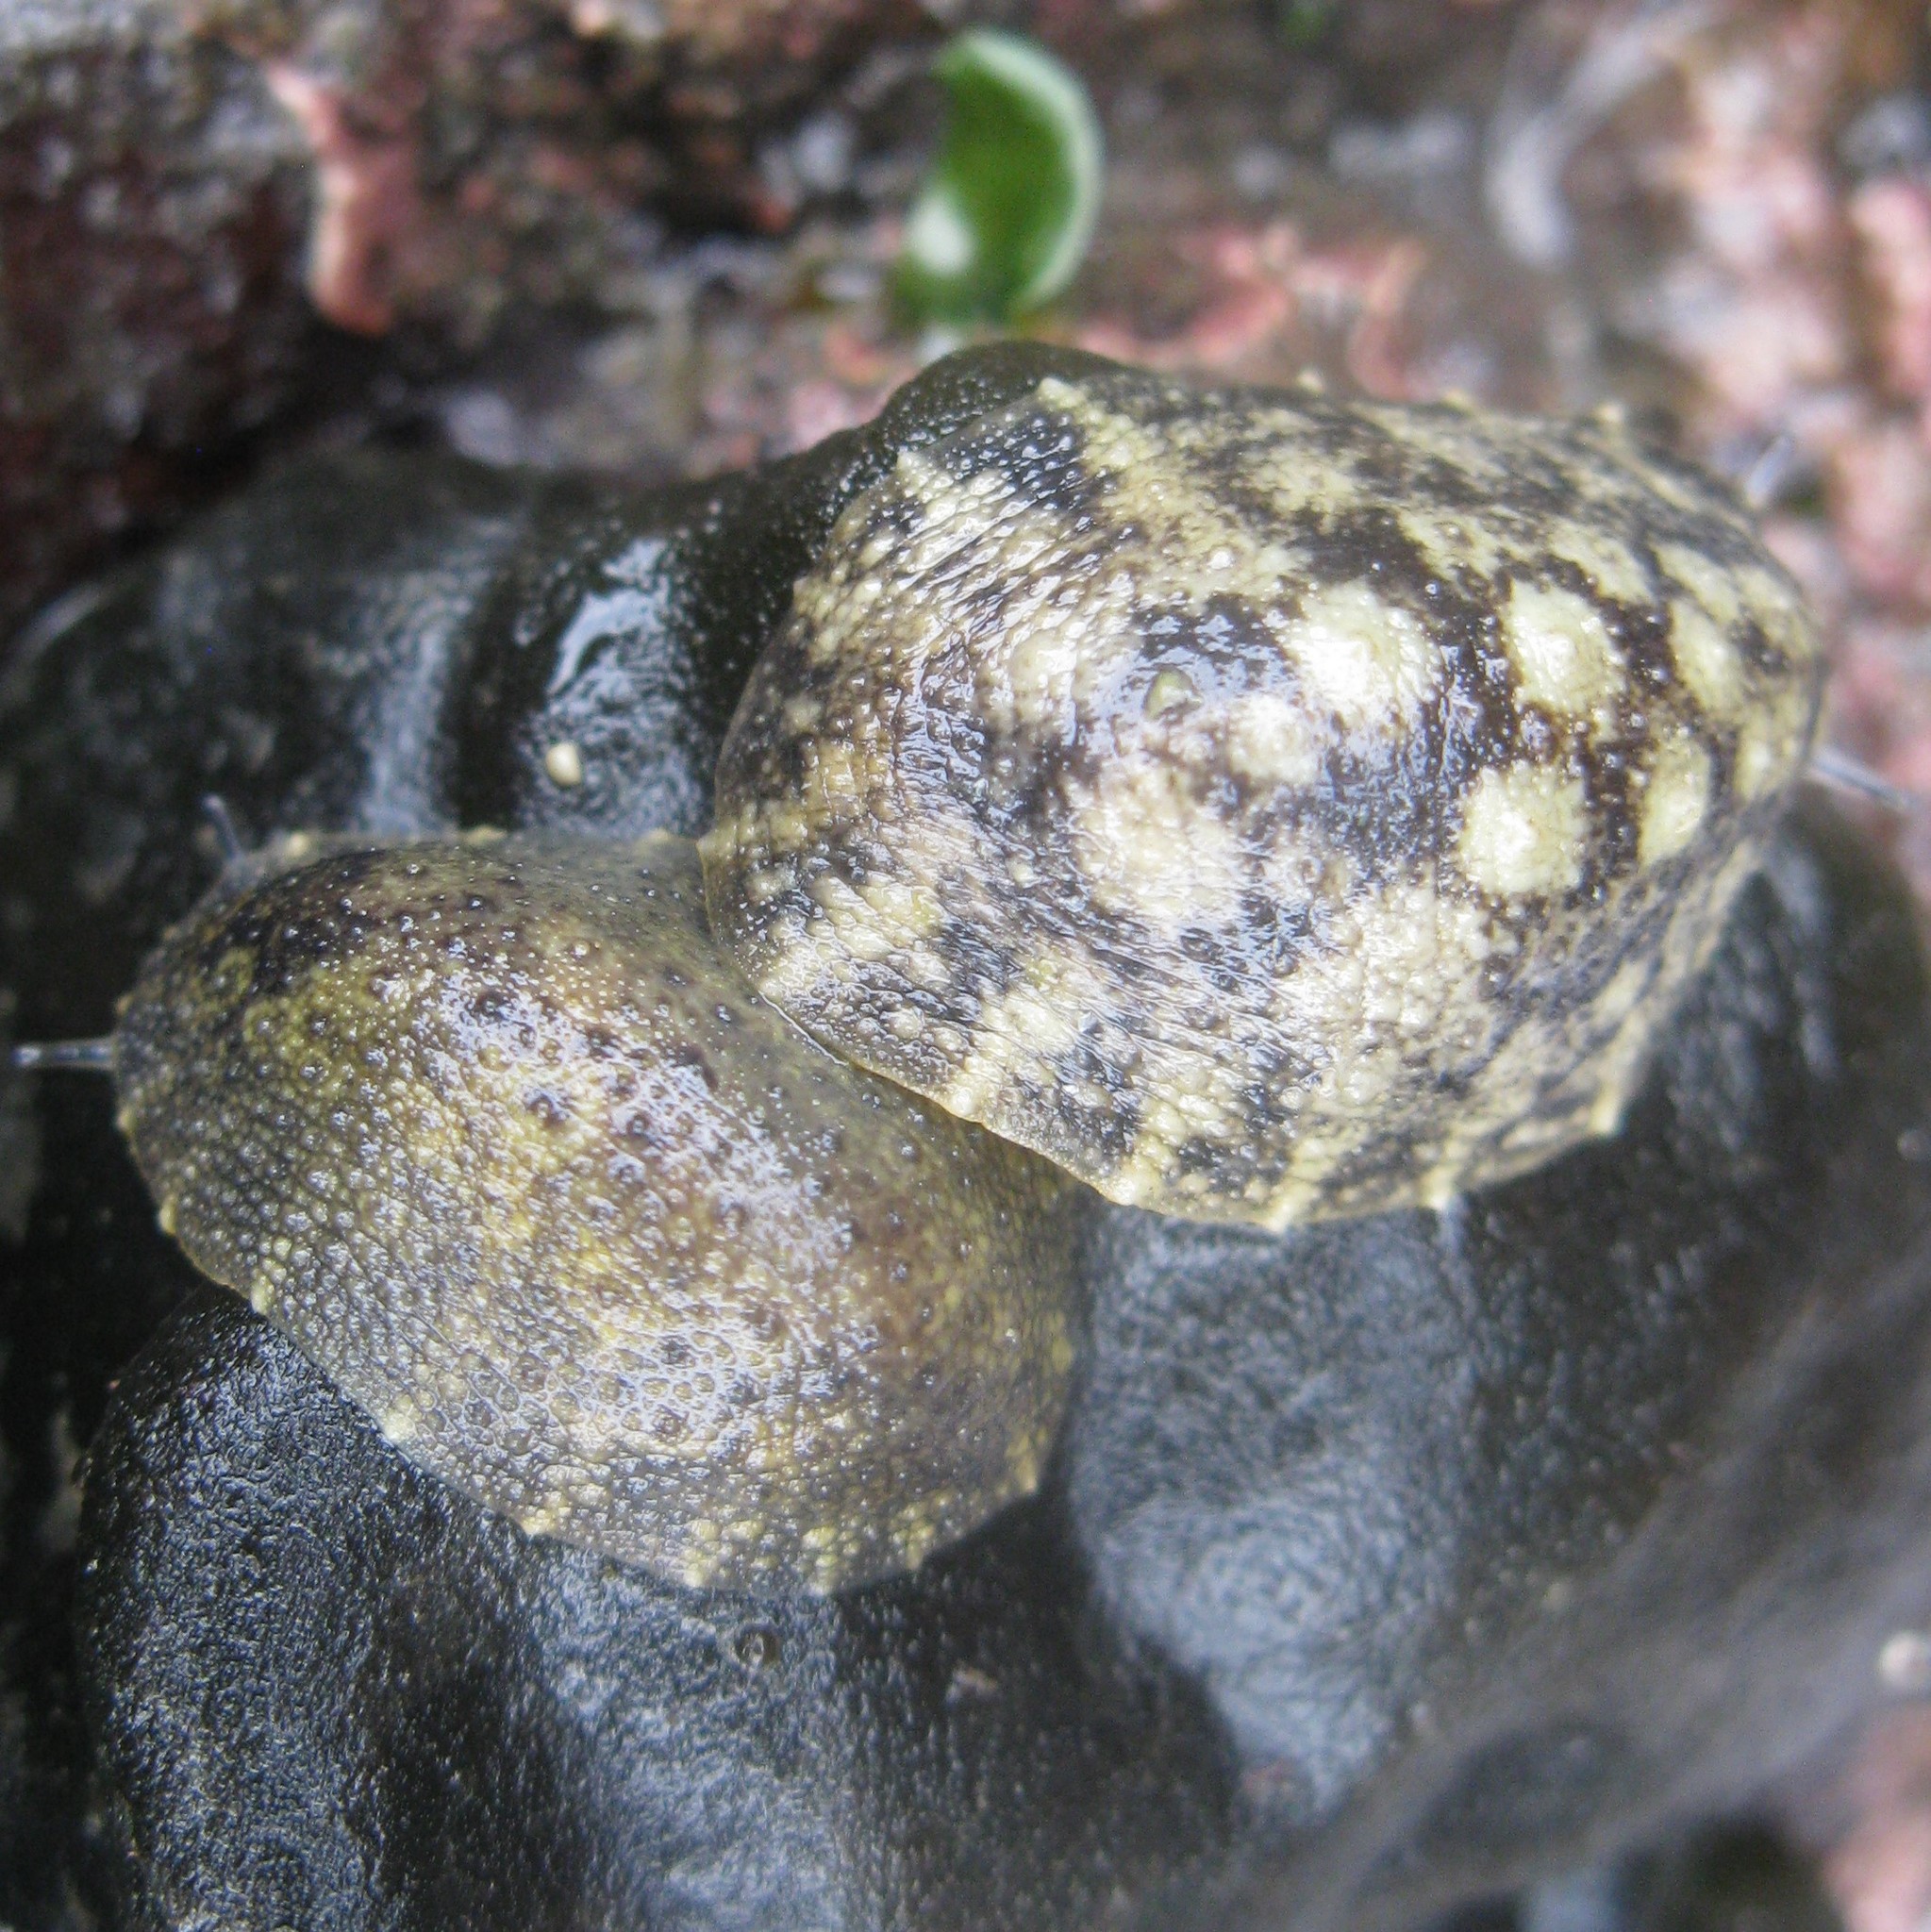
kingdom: Animalia
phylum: Mollusca
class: Gastropoda
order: Systellommatophora
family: Onchidiidae
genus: Onchidella
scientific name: Onchidella nigricans
